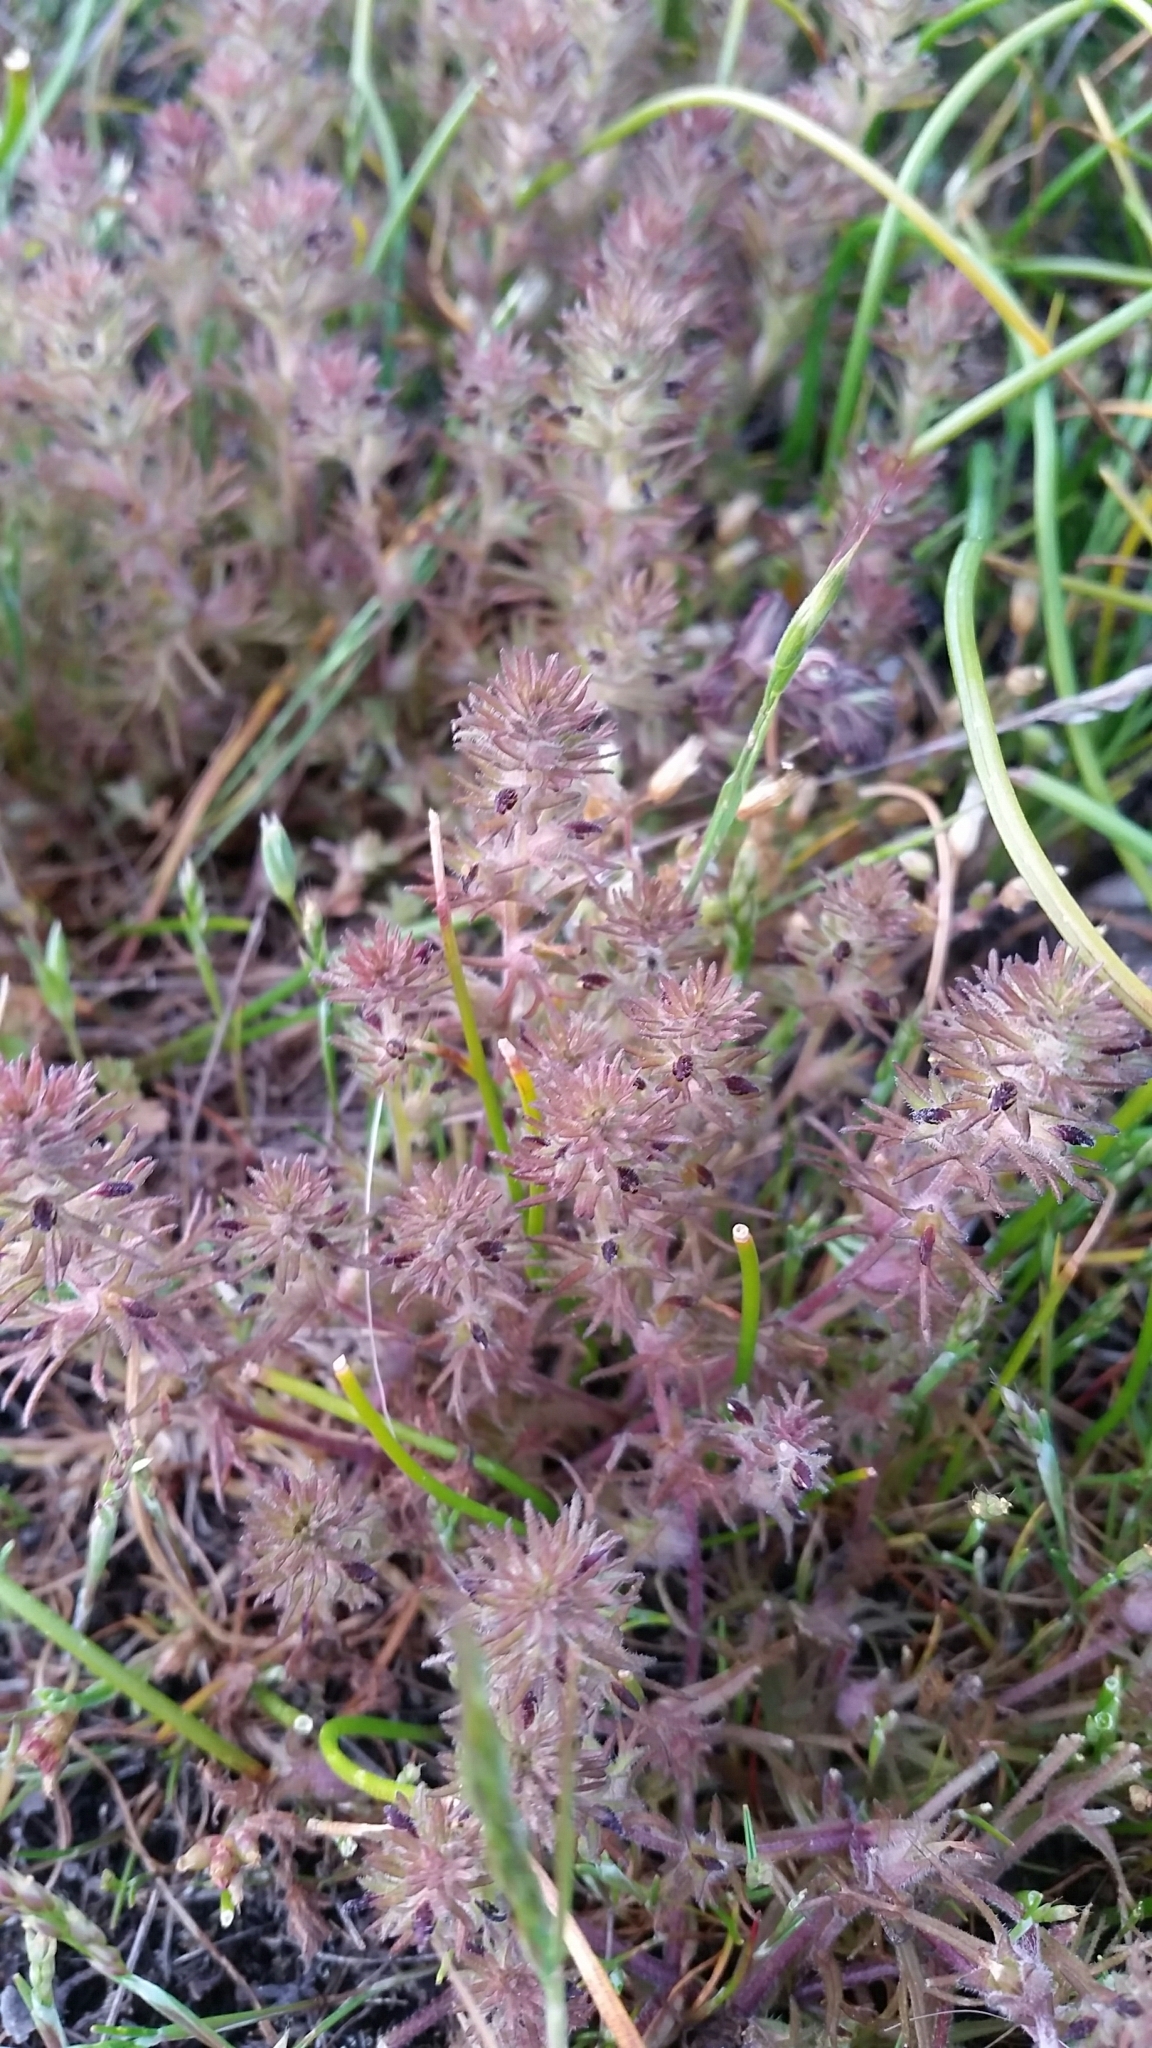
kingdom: Plantae
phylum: Tracheophyta
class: Magnoliopsida
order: Lamiales
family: Orobanchaceae
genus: Triphysaria
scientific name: Triphysaria pusilla
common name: Dwarf false owl-clover
